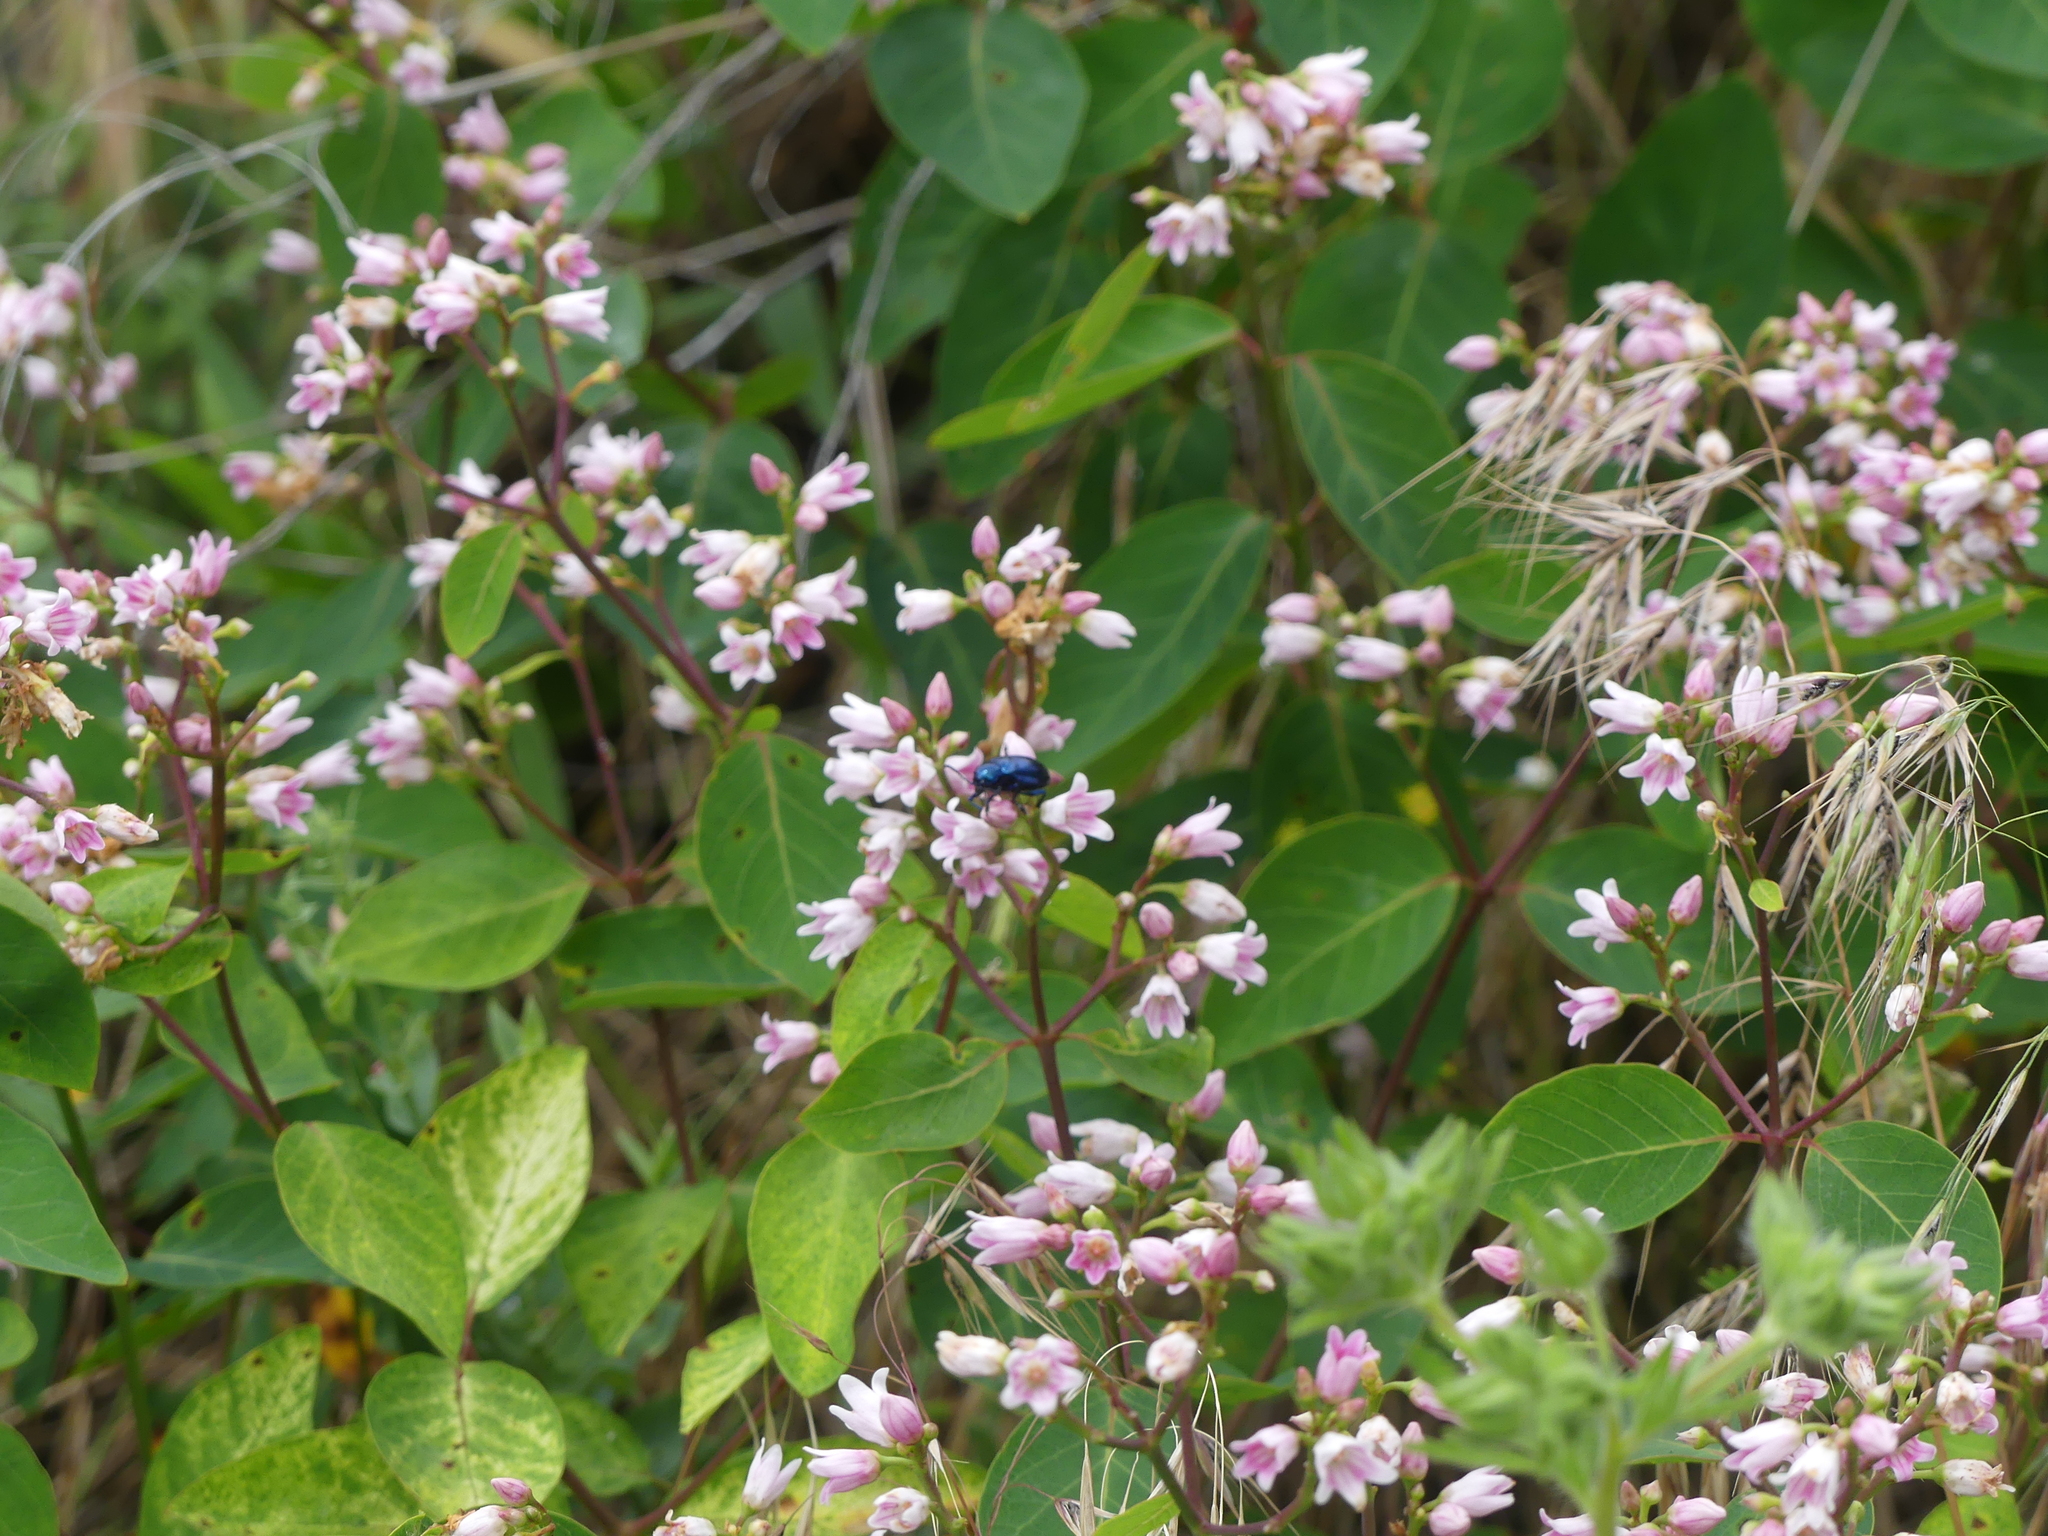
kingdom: Animalia
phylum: Arthropoda
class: Insecta
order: Coleoptera
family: Chrysomelidae
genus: Chrysochus
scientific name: Chrysochus cobaltinus
